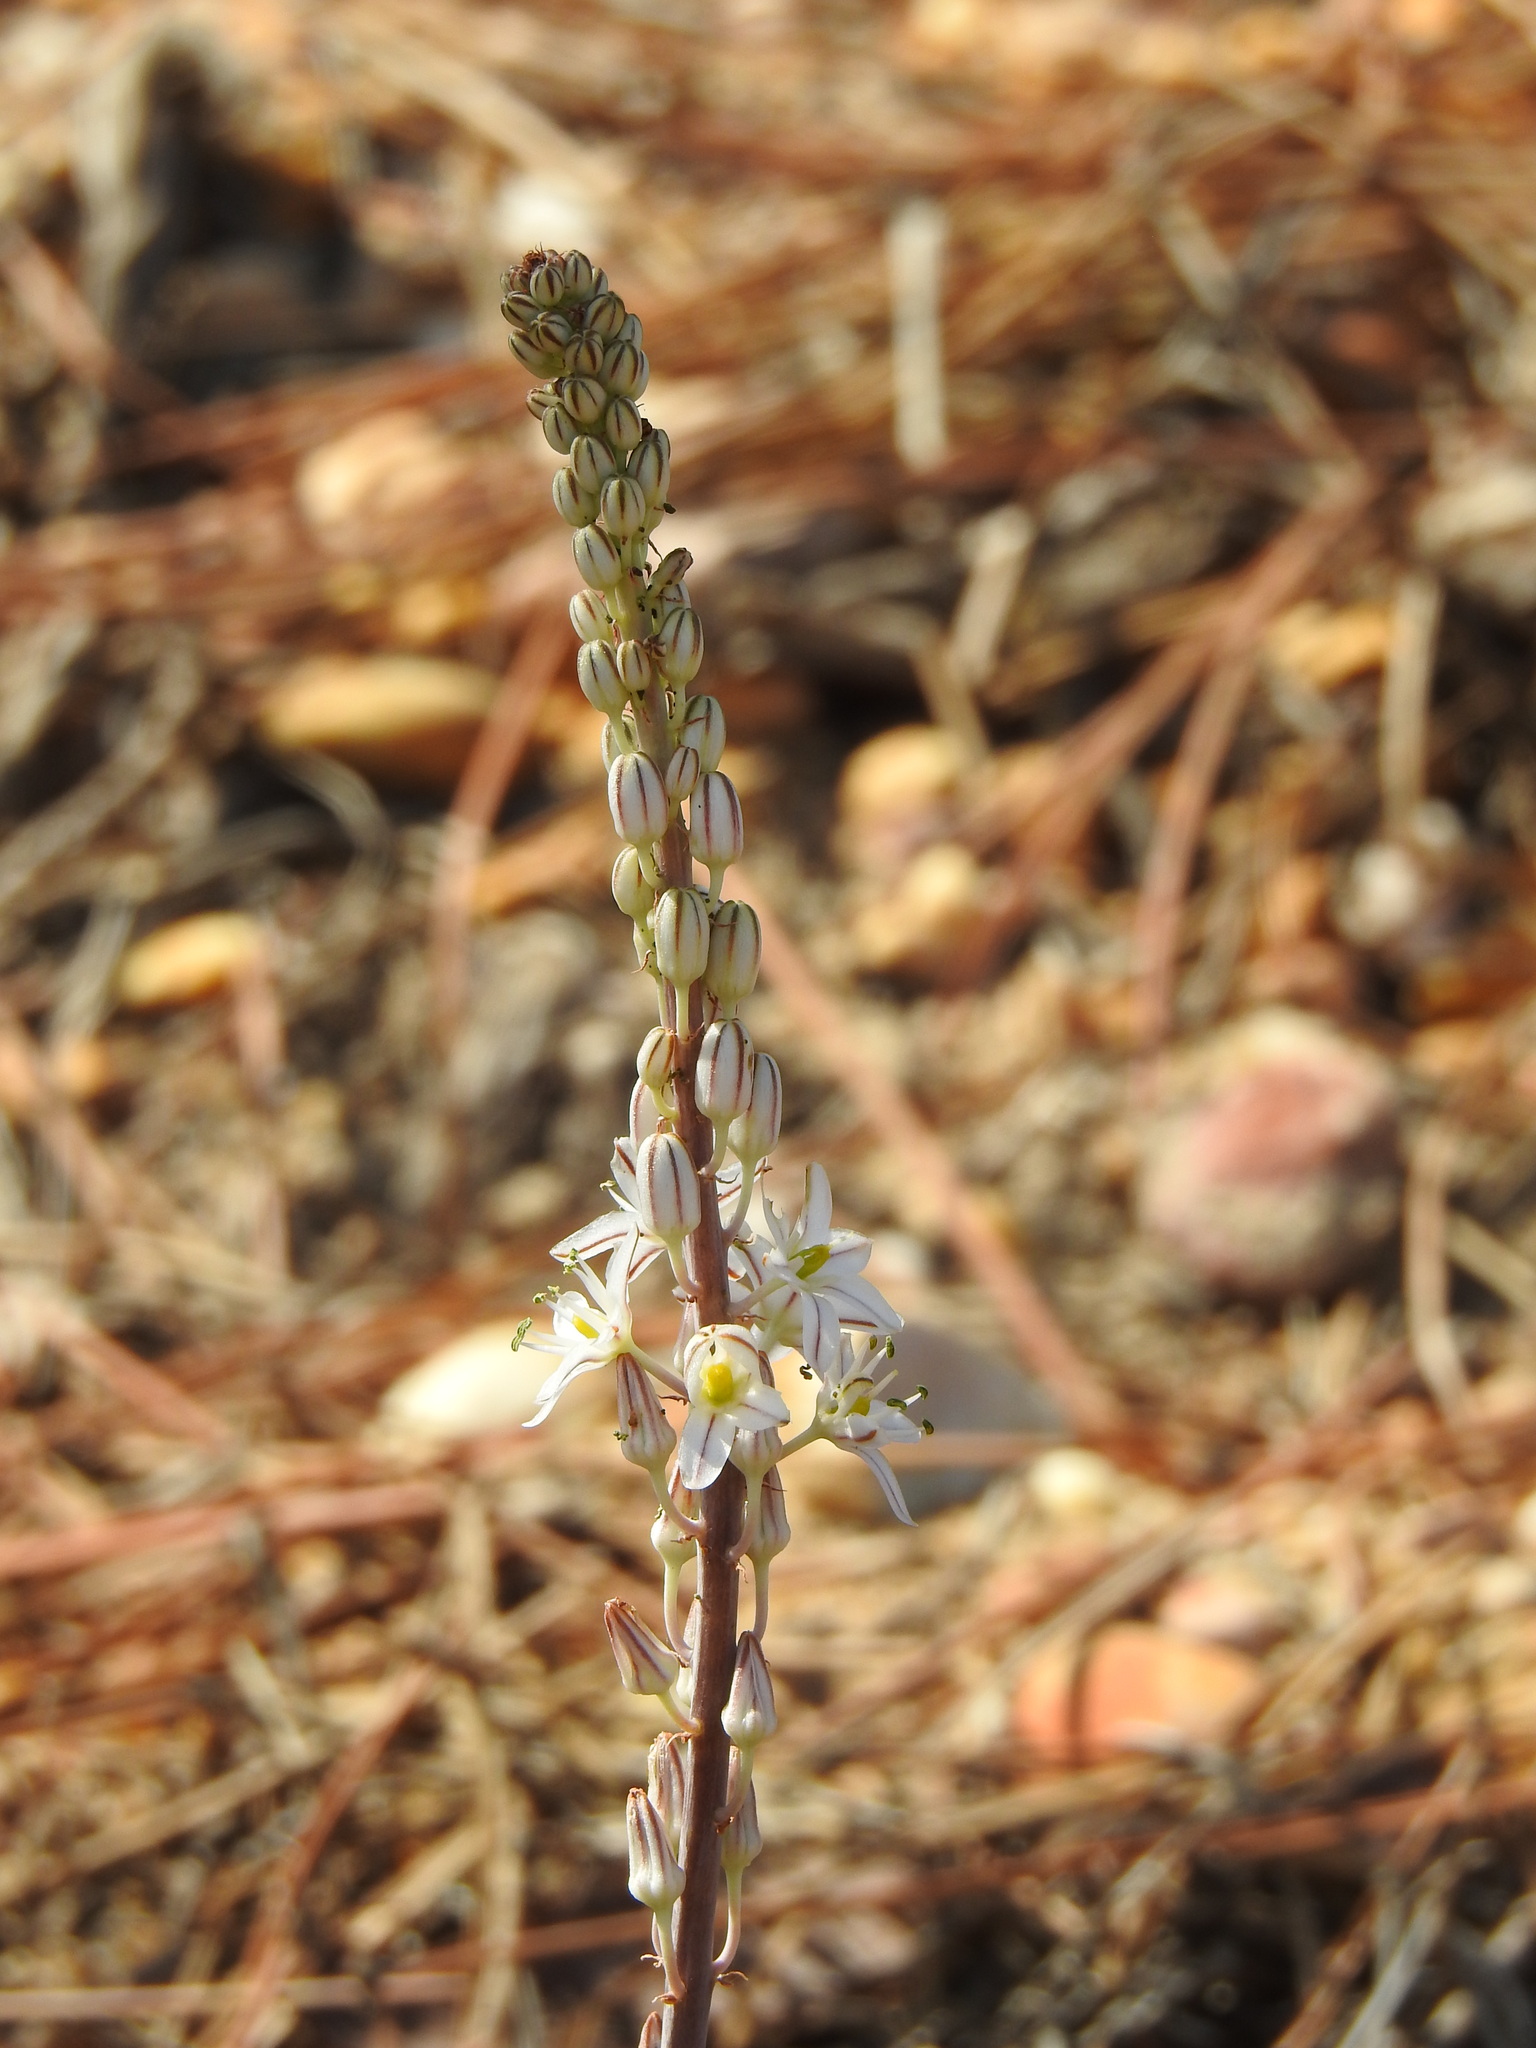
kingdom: Plantae
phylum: Tracheophyta
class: Liliopsida
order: Asparagales
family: Asparagaceae
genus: Drimia
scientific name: Drimia maritima
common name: Maritime squill
